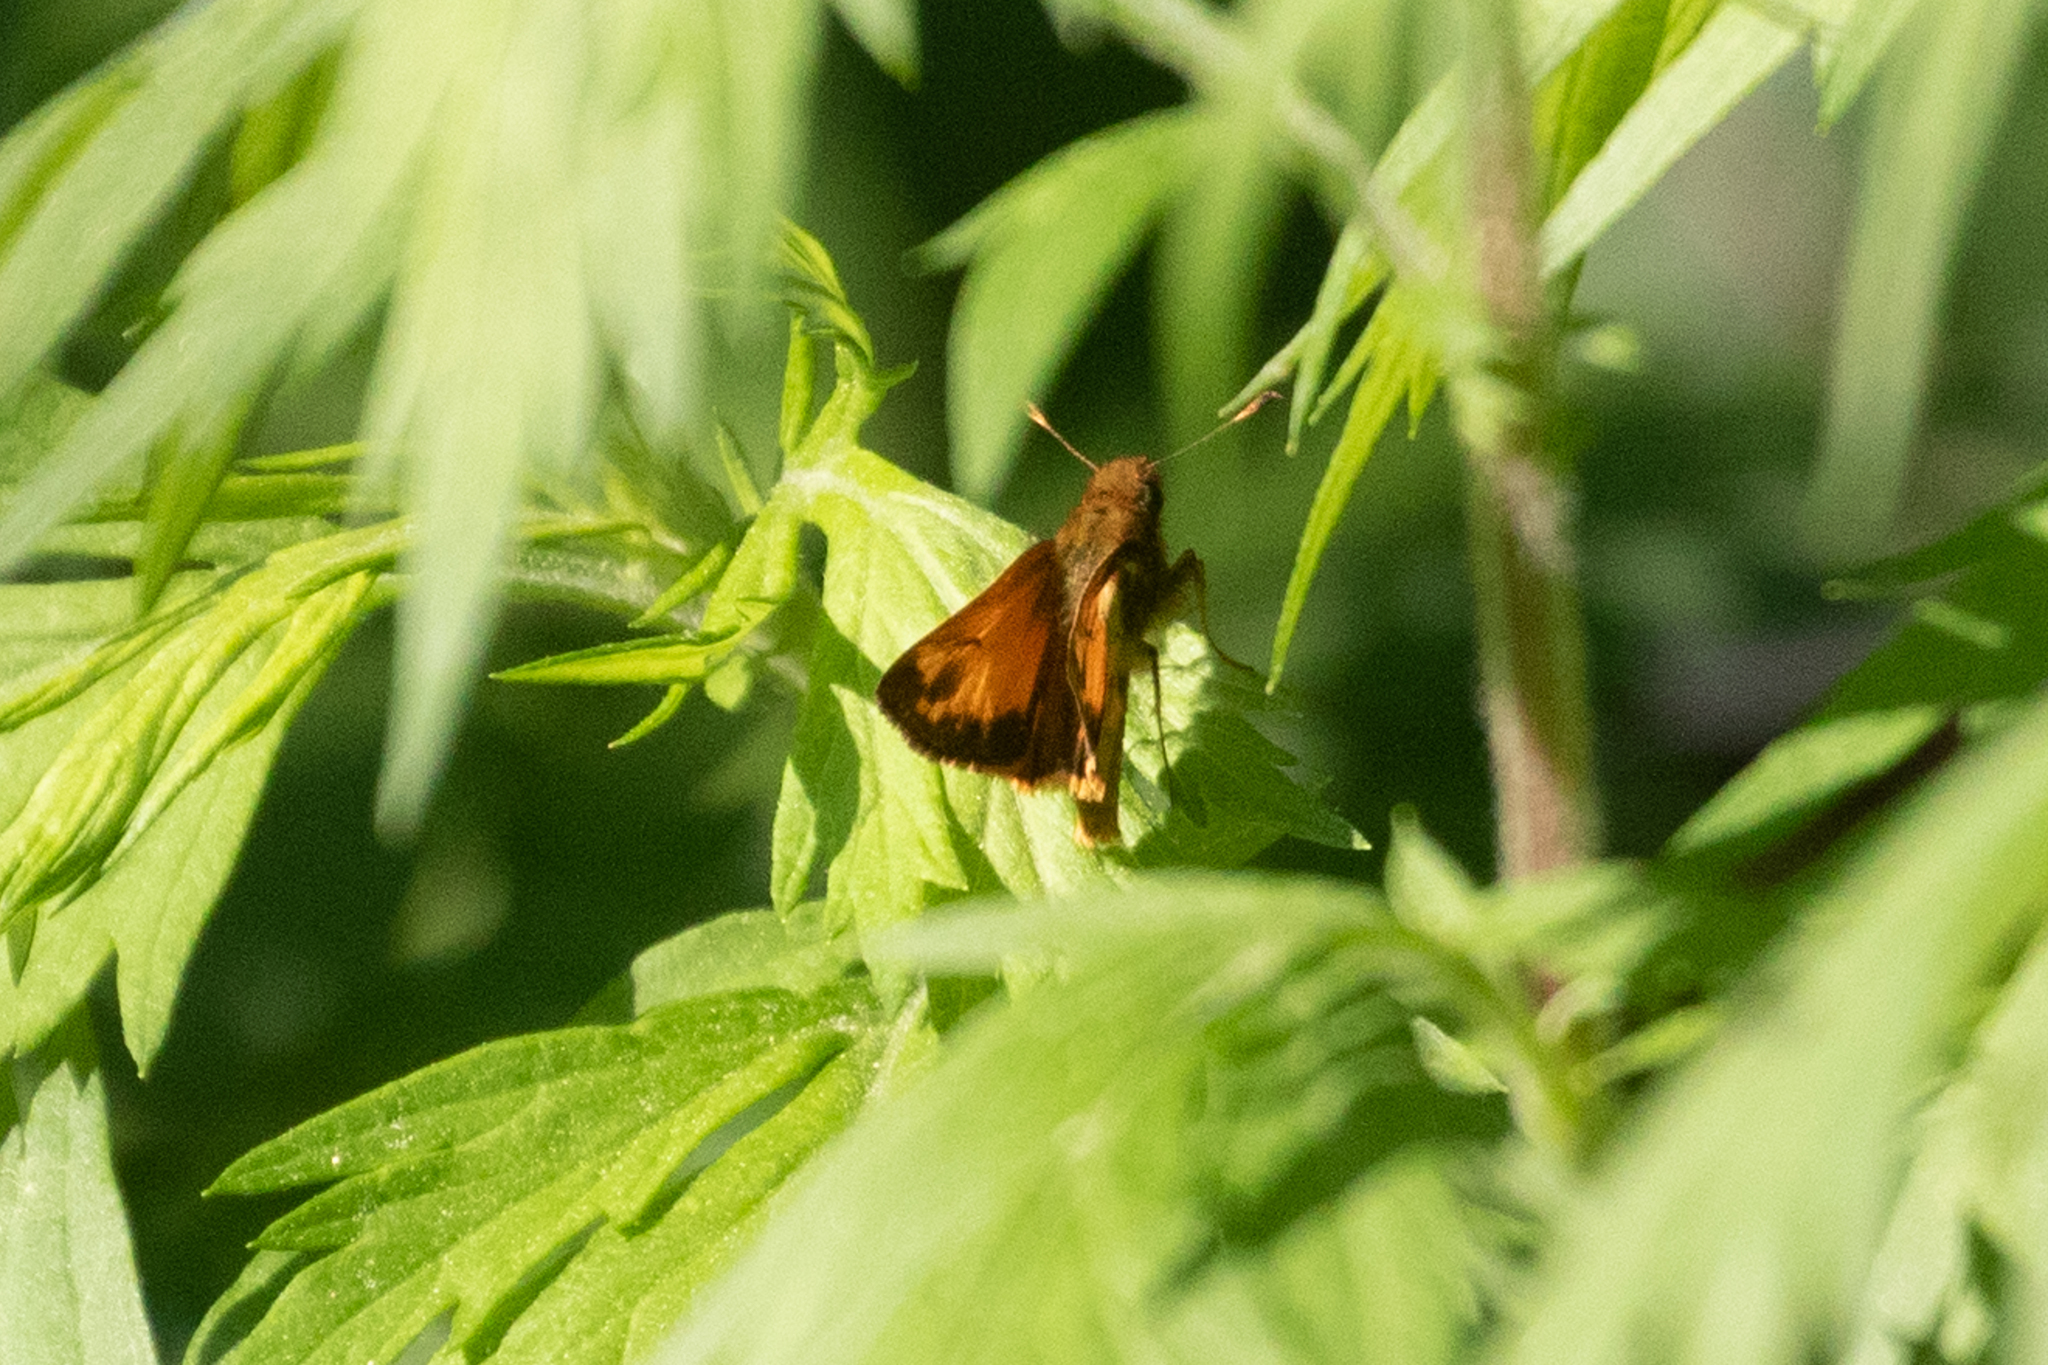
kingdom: Animalia
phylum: Arthropoda
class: Insecta
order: Lepidoptera
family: Hesperiidae
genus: Lon
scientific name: Lon zabulon
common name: Zabulon skipper
